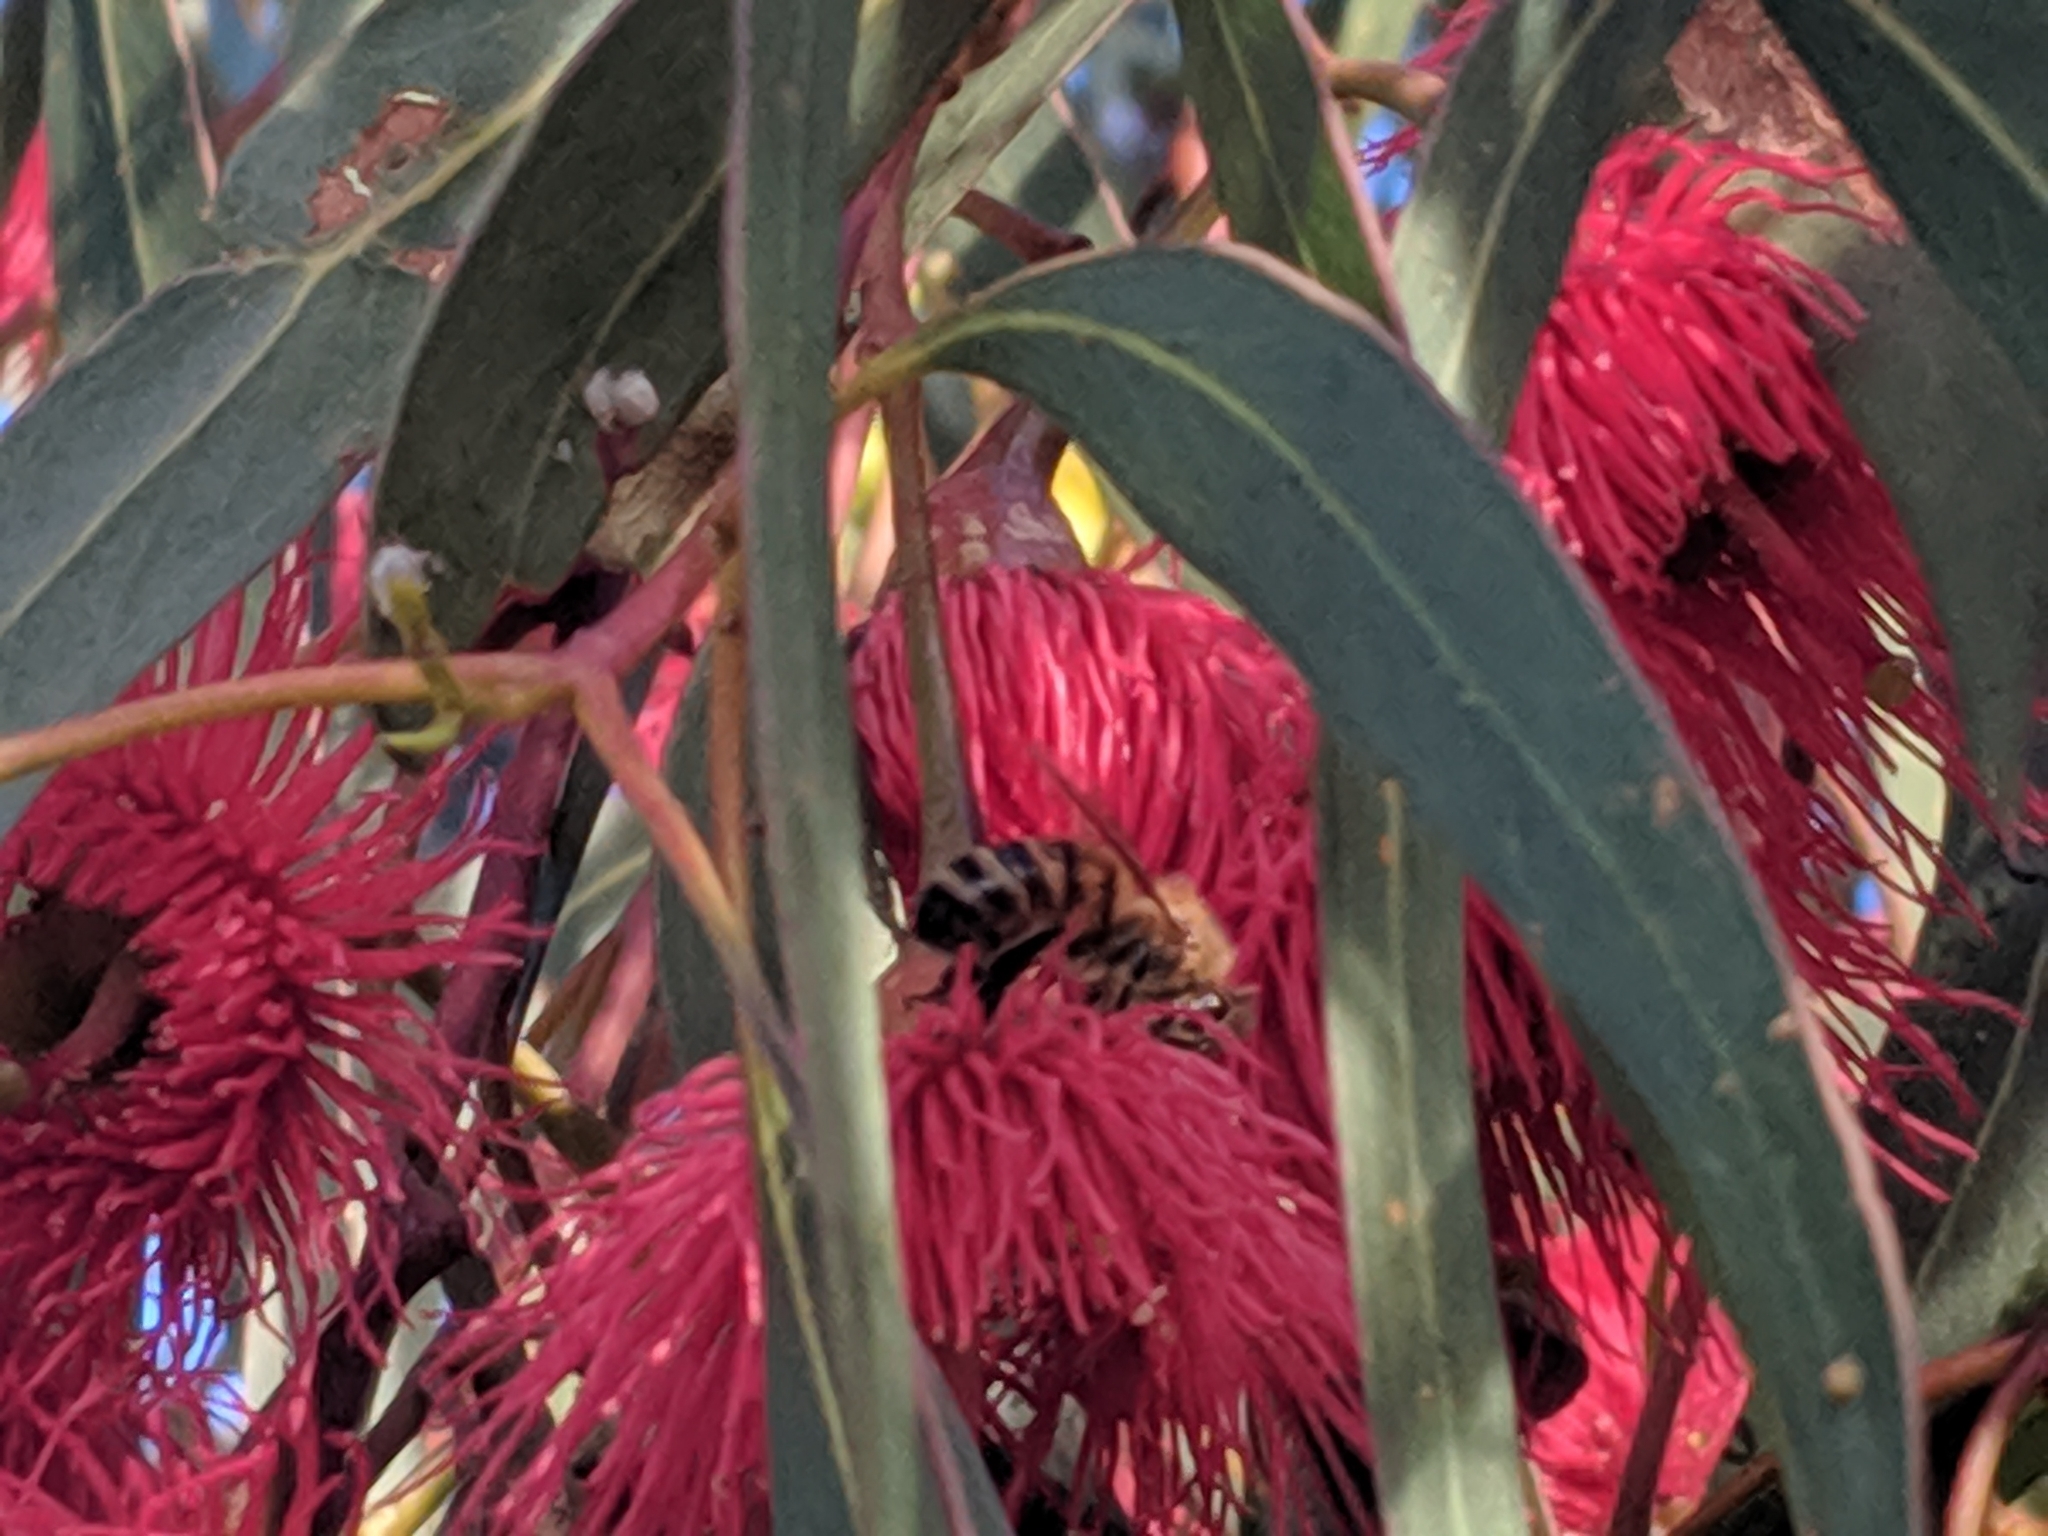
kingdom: Animalia
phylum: Arthropoda
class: Insecta
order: Hymenoptera
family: Apidae
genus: Apis
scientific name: Apis mellifera
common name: Honey bee
